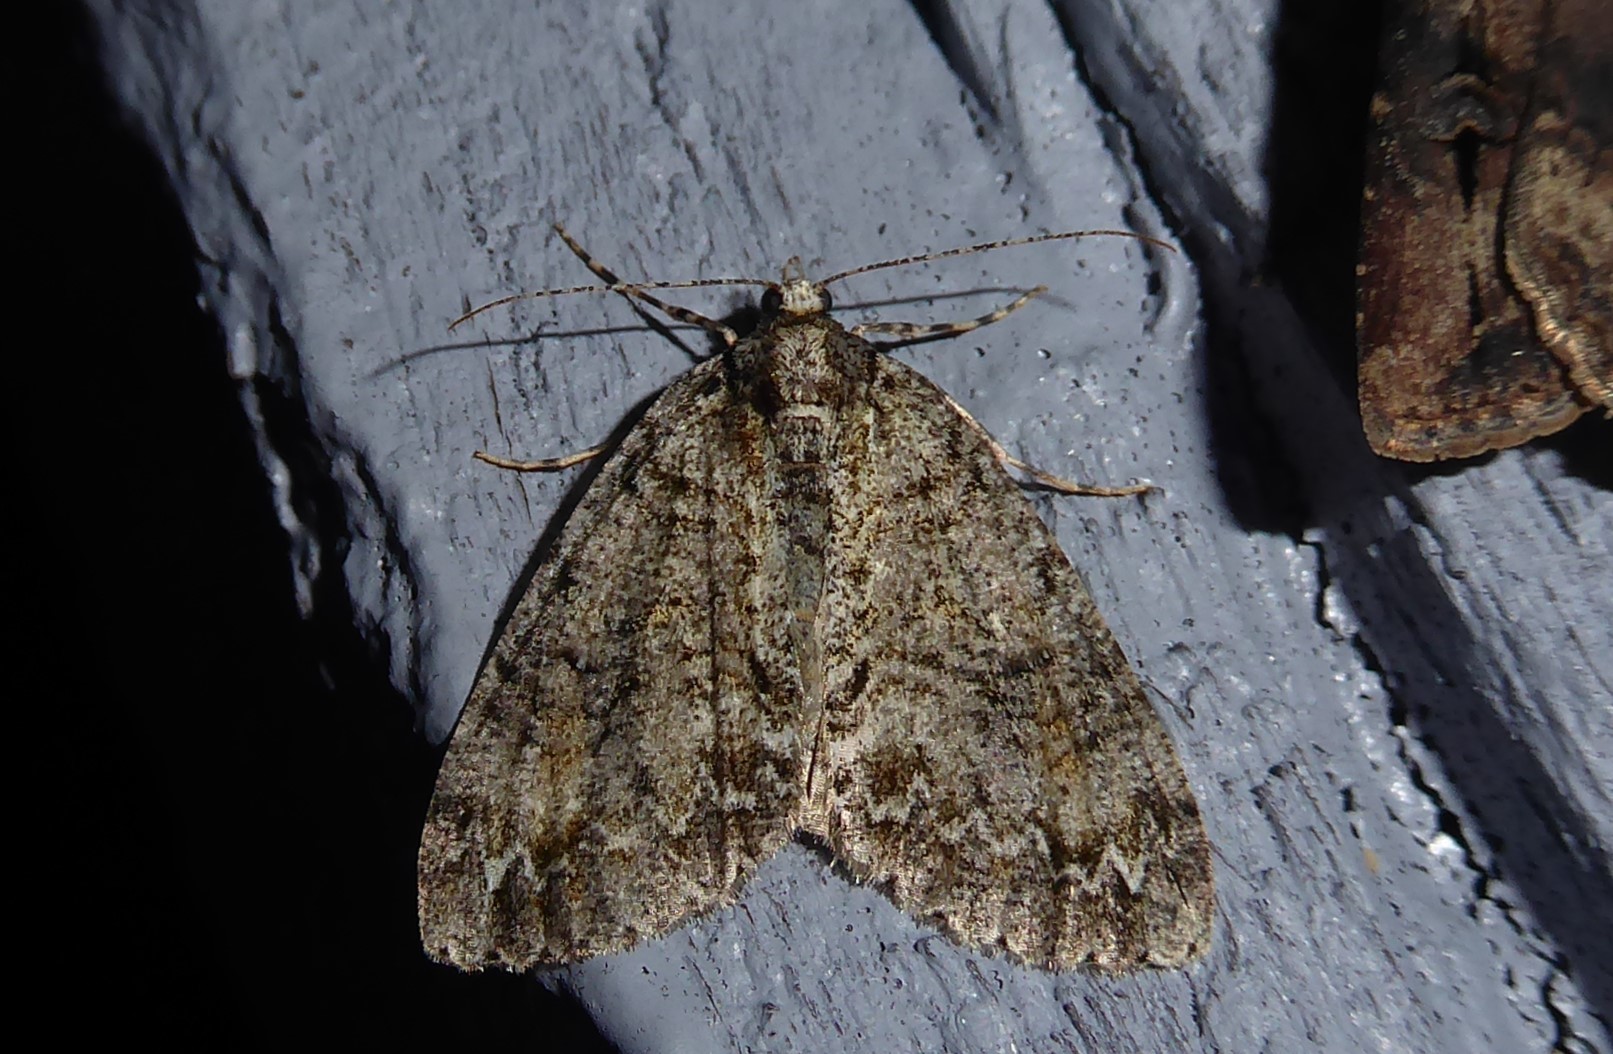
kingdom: Animalia
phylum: Arthropoda
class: Insecta
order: Lepidoptera
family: Geometridae
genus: Pseudocoremia
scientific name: Pseudocoremia suavis
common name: Common forest looper
